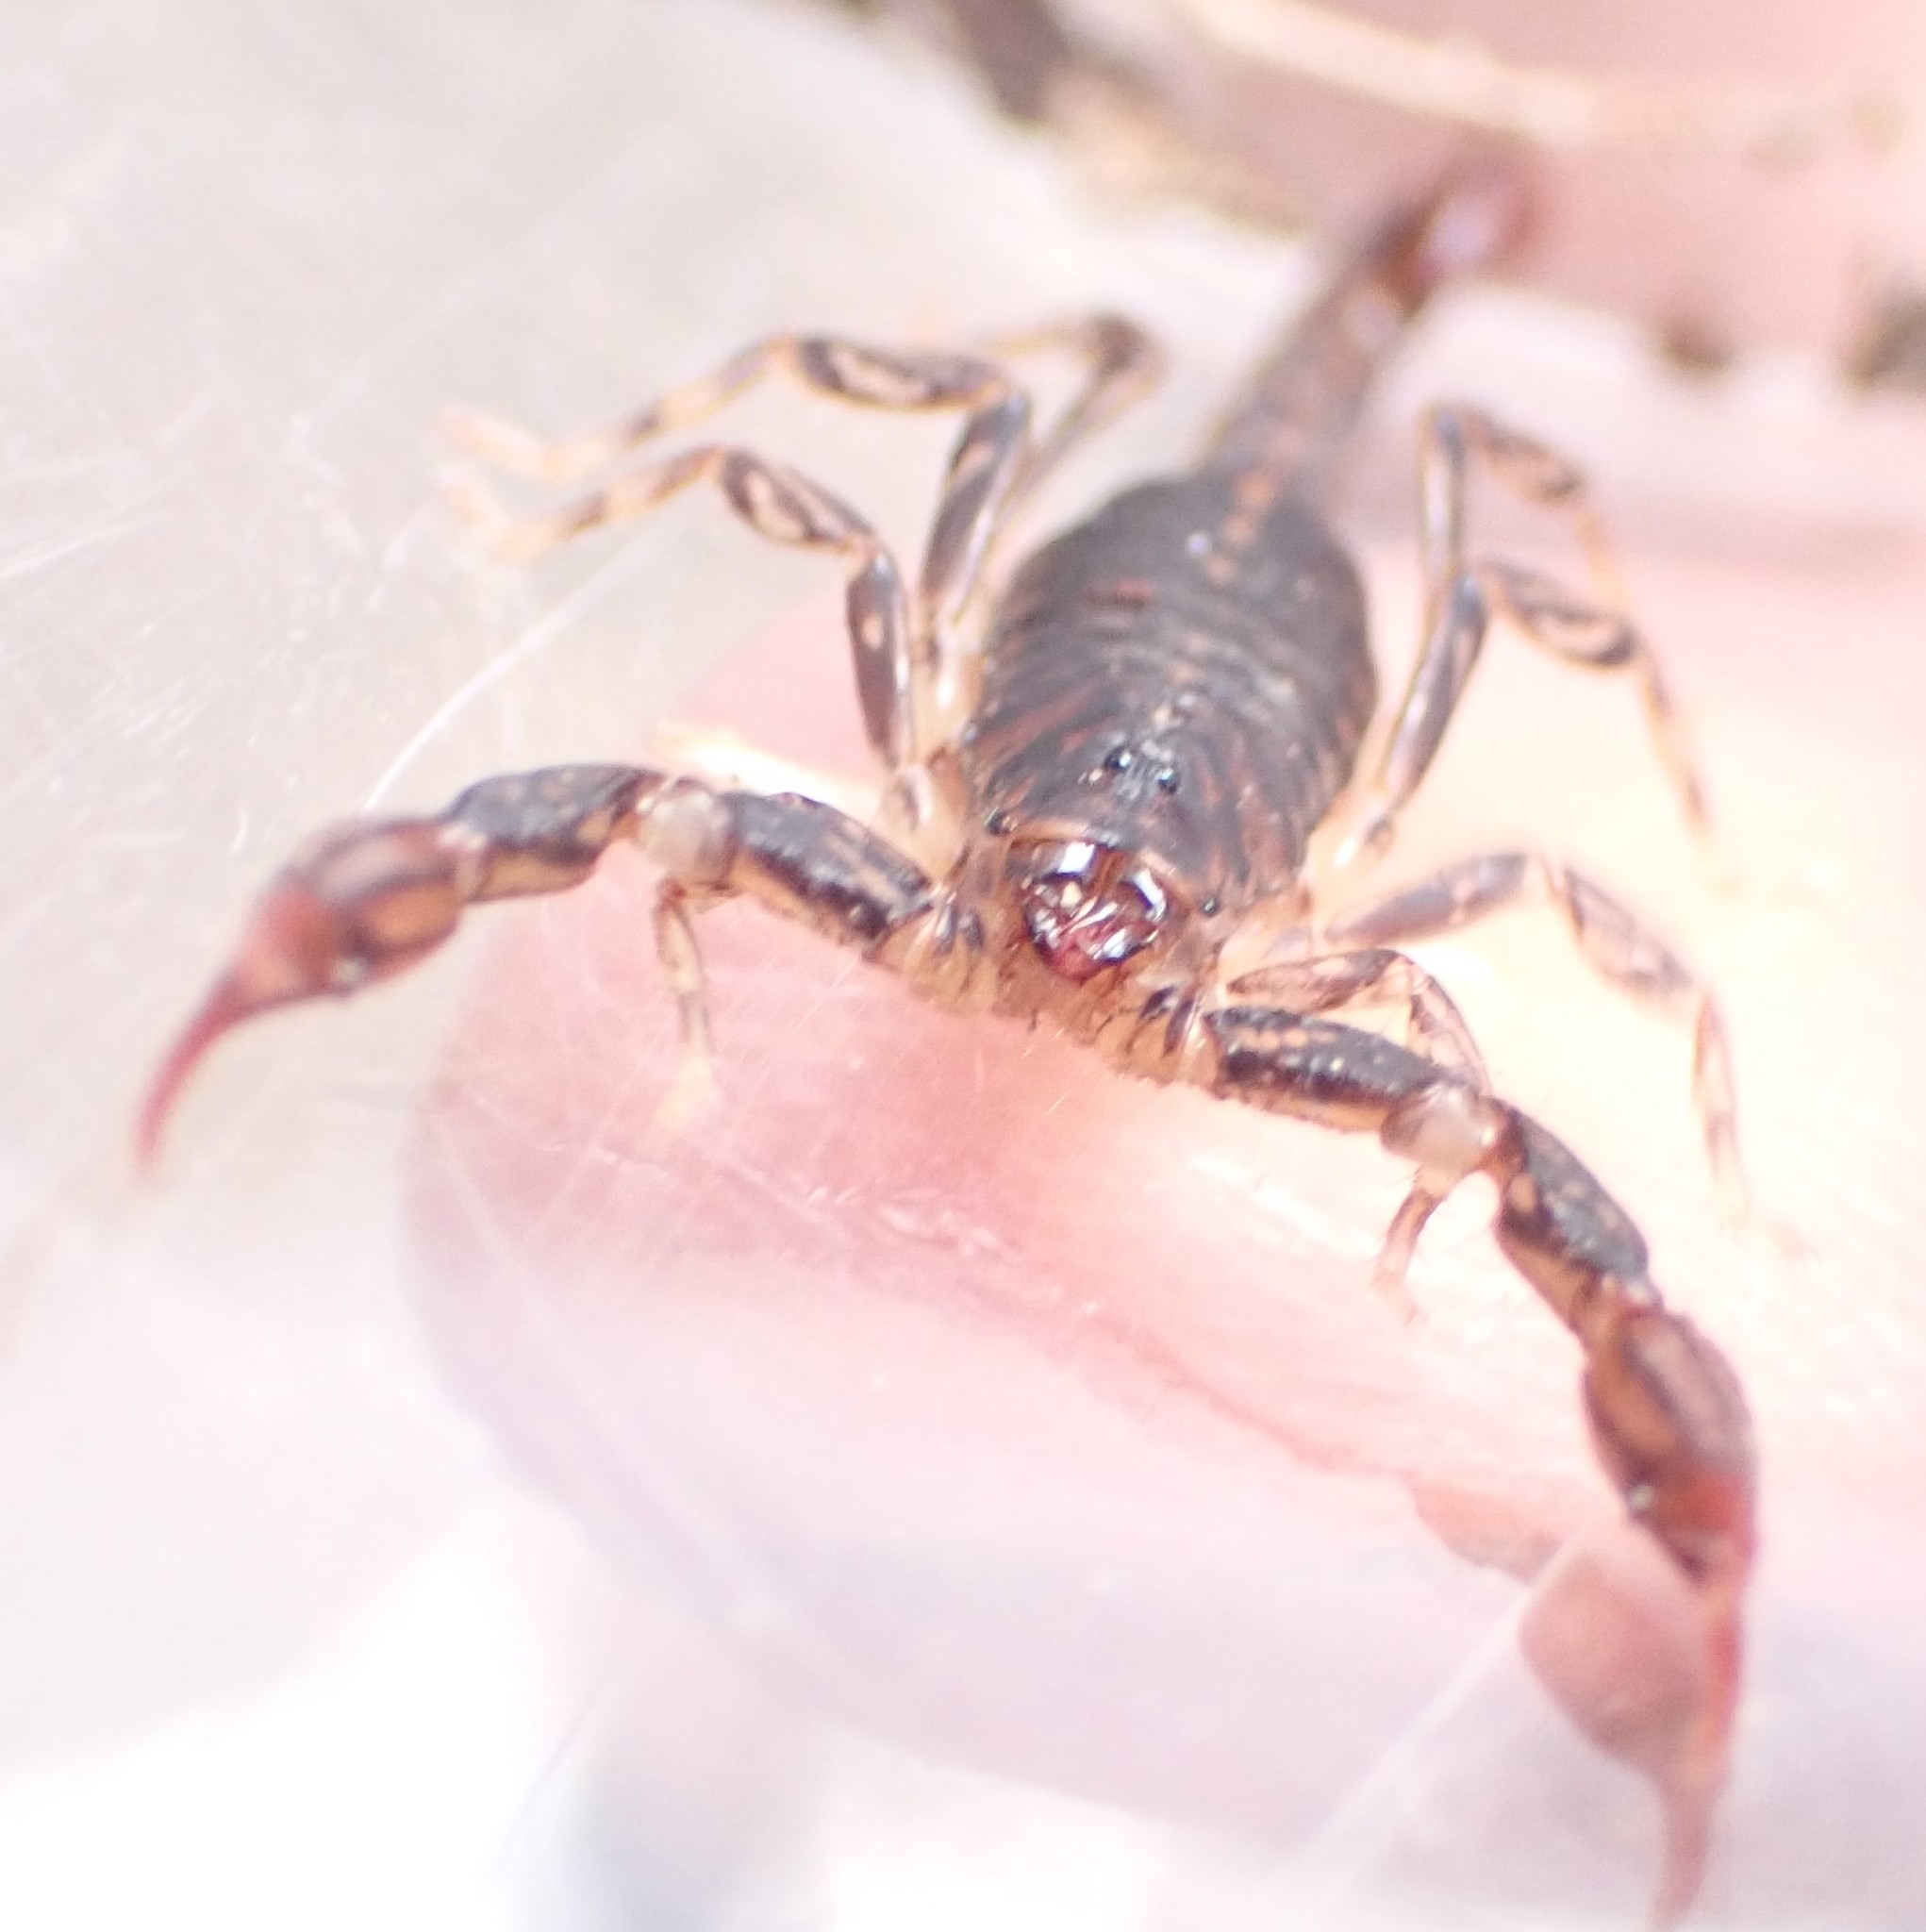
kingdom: Animalia
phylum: Arthropoda
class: Arachnida
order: Scorpiones
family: Bothriuridae
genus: Cercophonius
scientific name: Cercophonius squama
